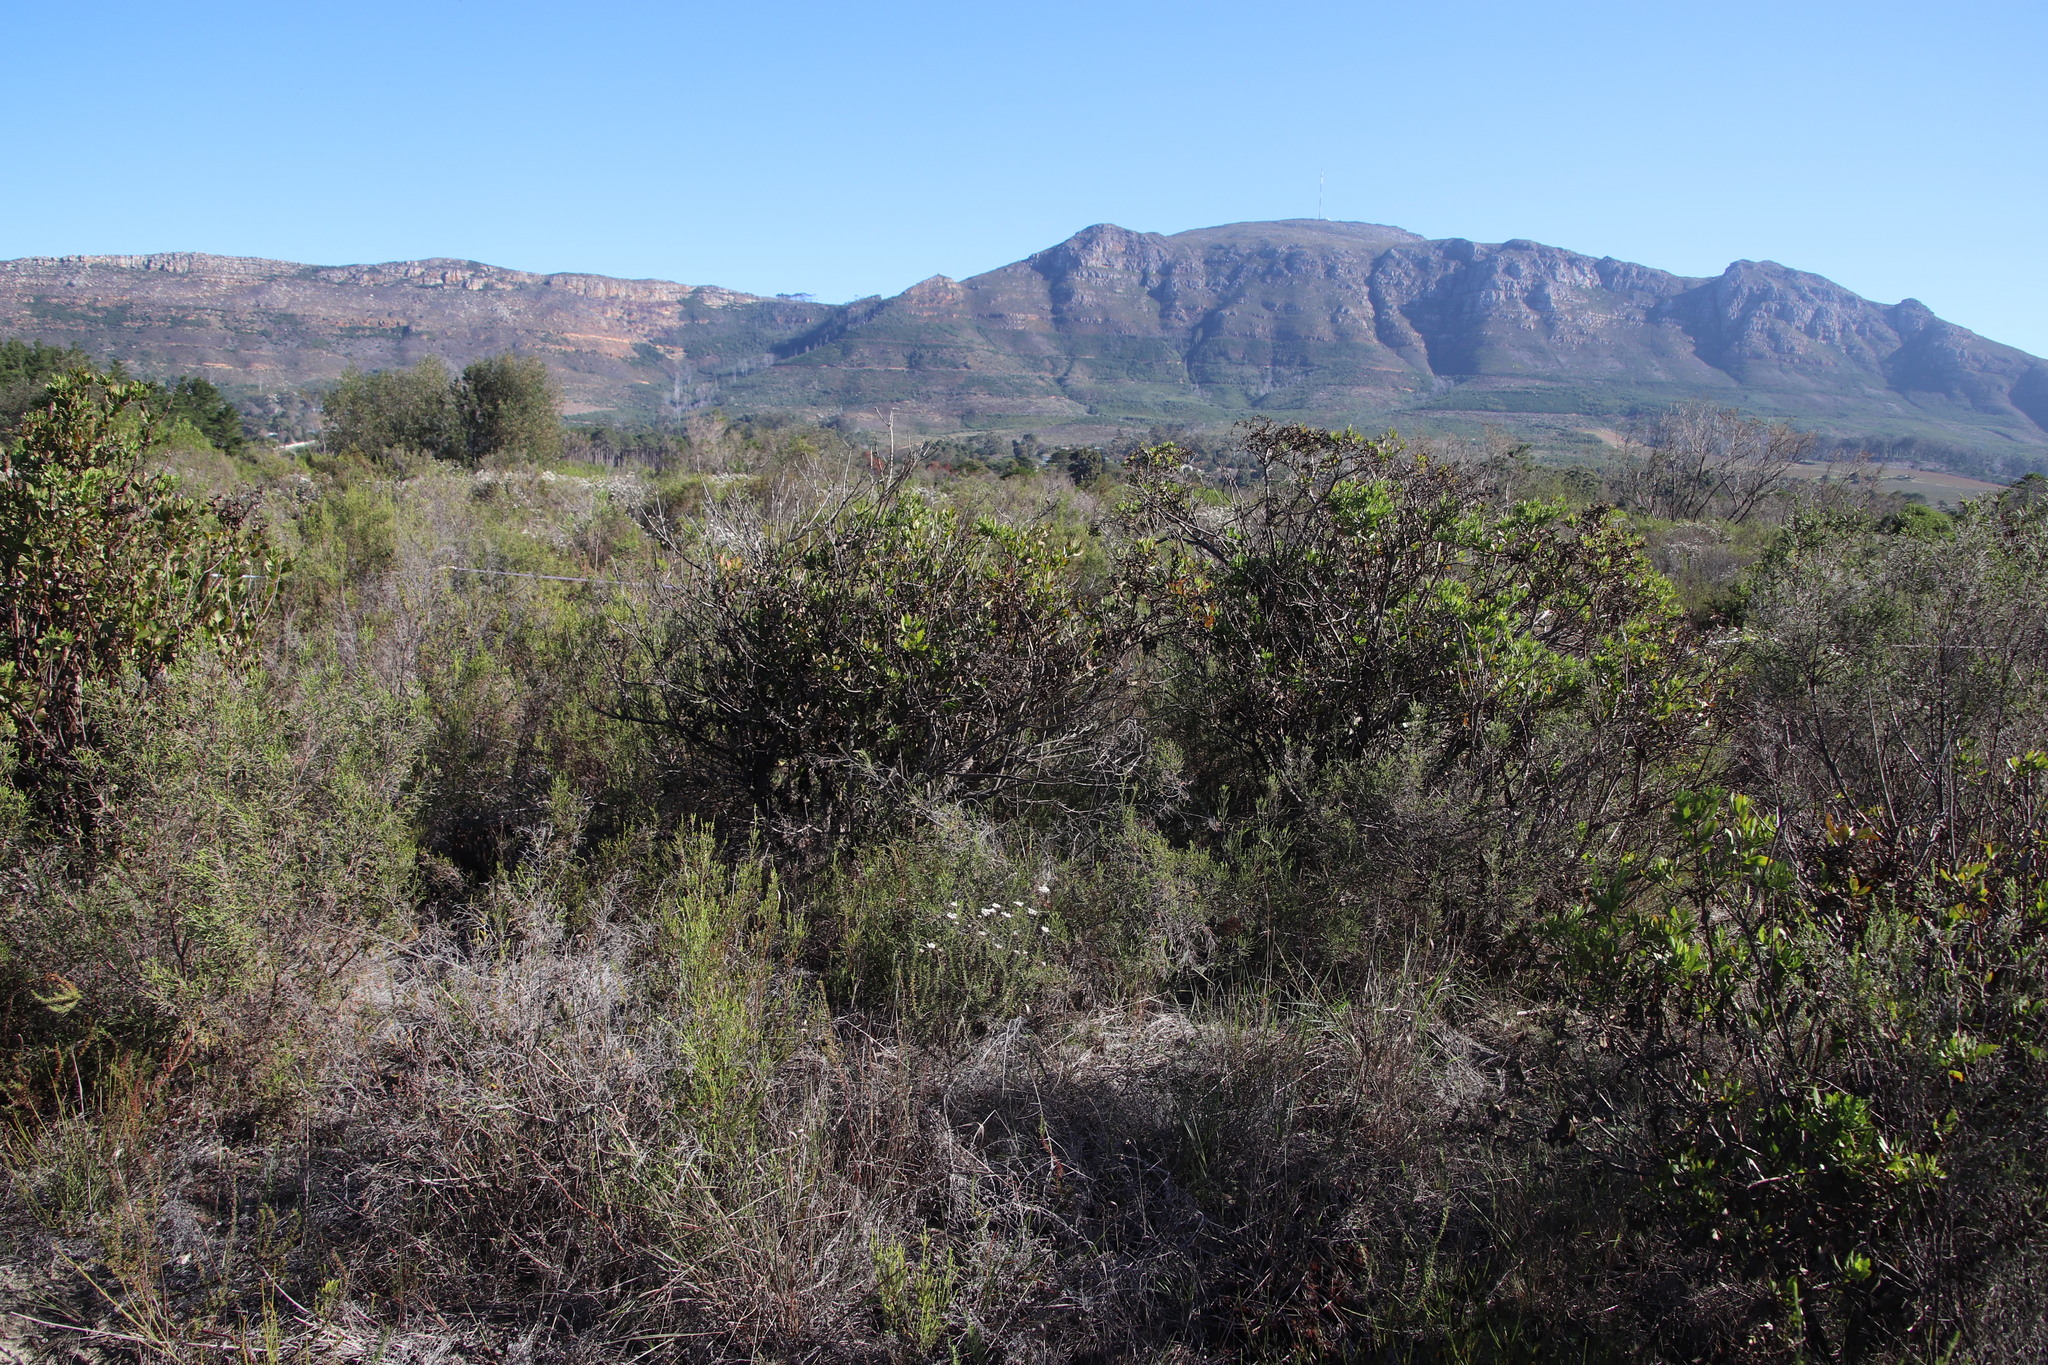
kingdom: Plantae
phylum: Tracheophyta
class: Magnoliopsida
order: Asterales
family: Asteraceae
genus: Osteospermum
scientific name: Osteospermum moniliferum
